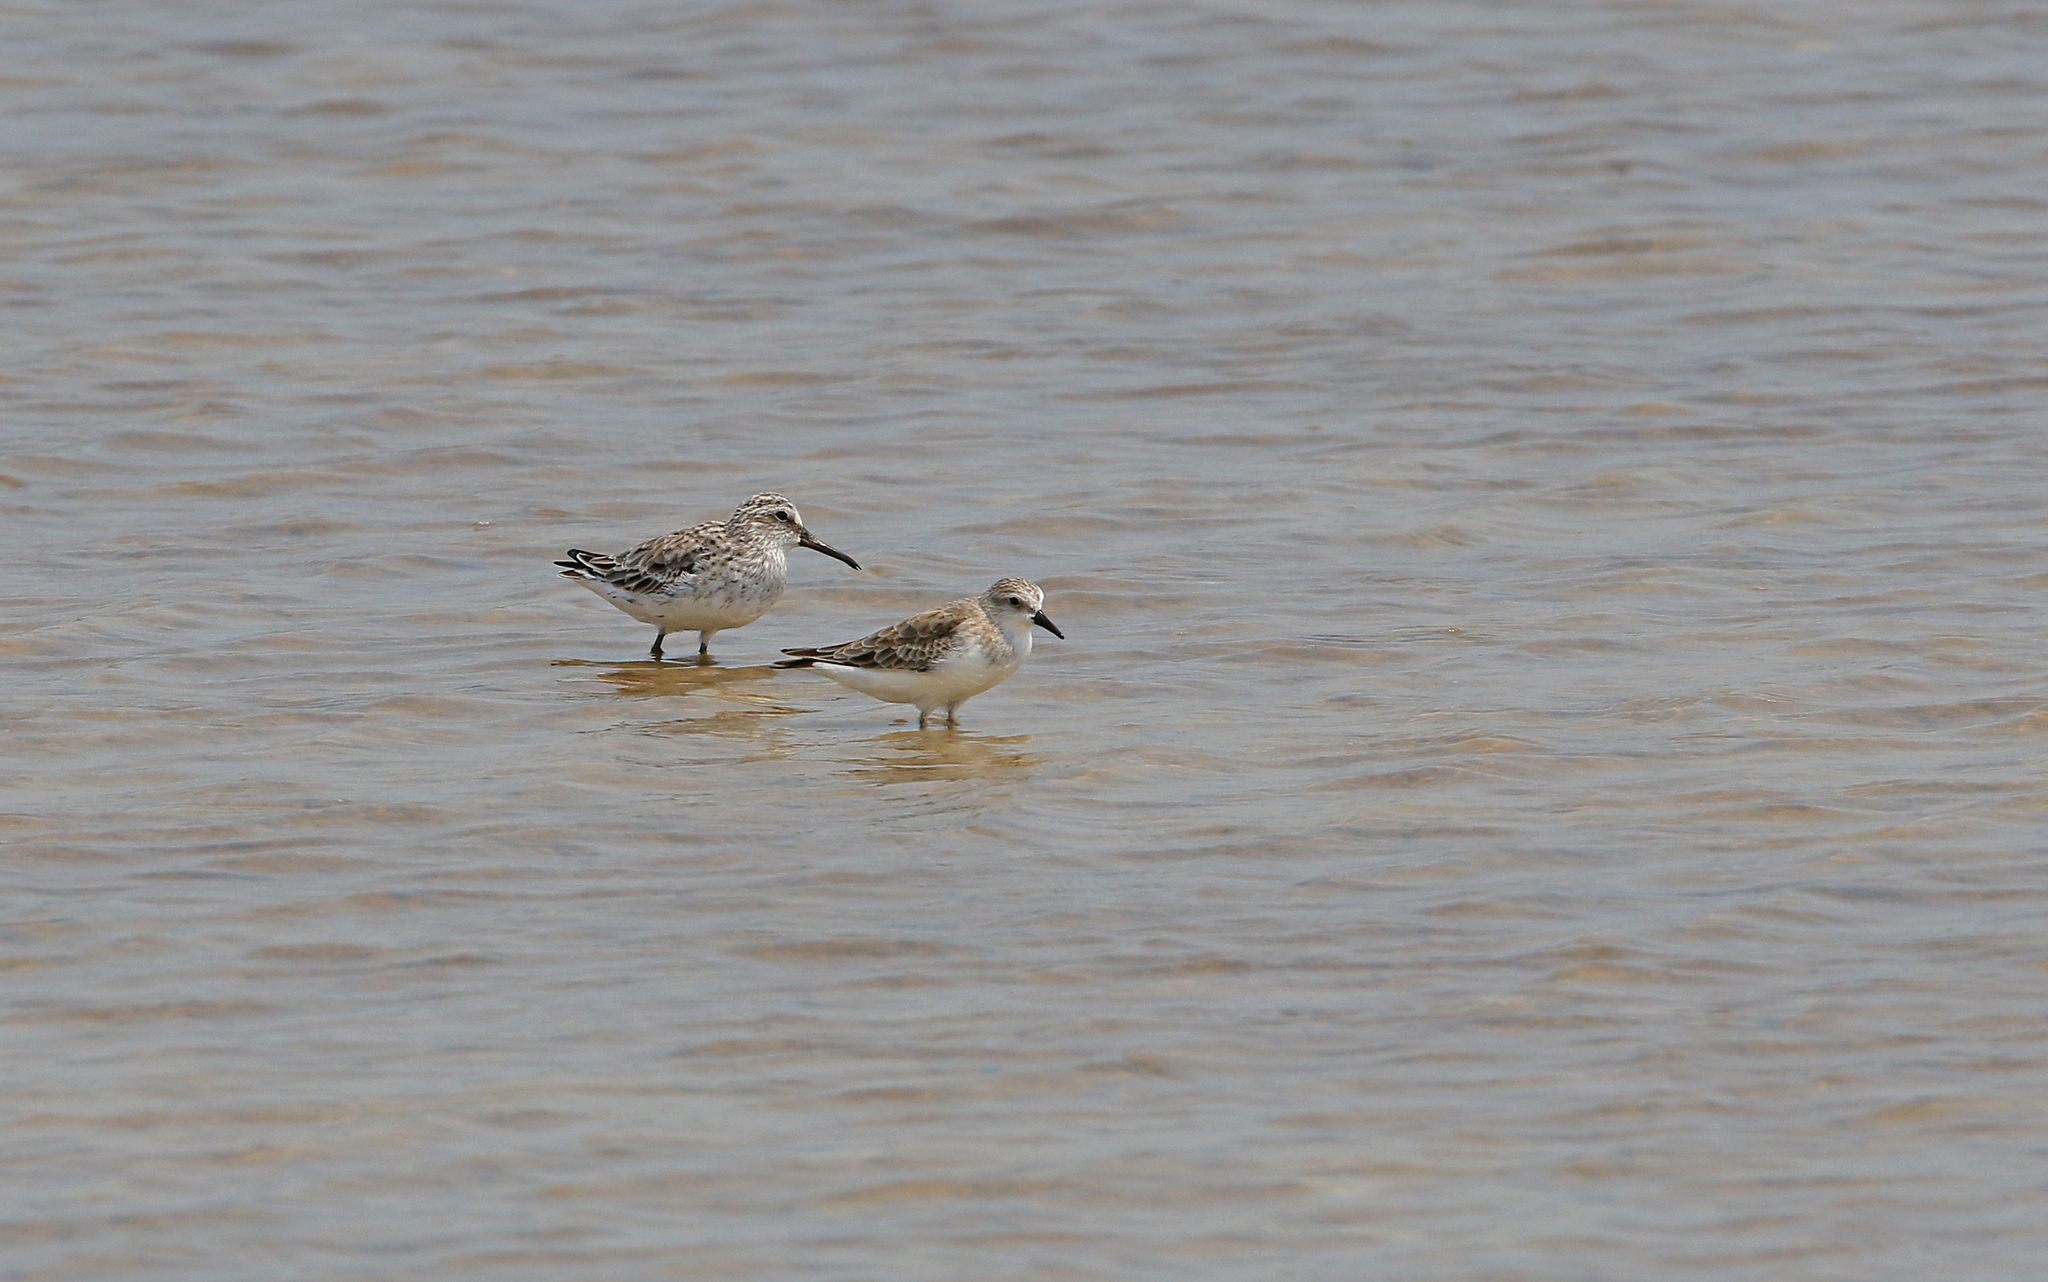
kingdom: Animalia
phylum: Chordata
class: Aves
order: Charadriiformes
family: Scolopacidae
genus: Calidris
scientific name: Calidris falcinellus
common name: Broad-billed sandpiper
